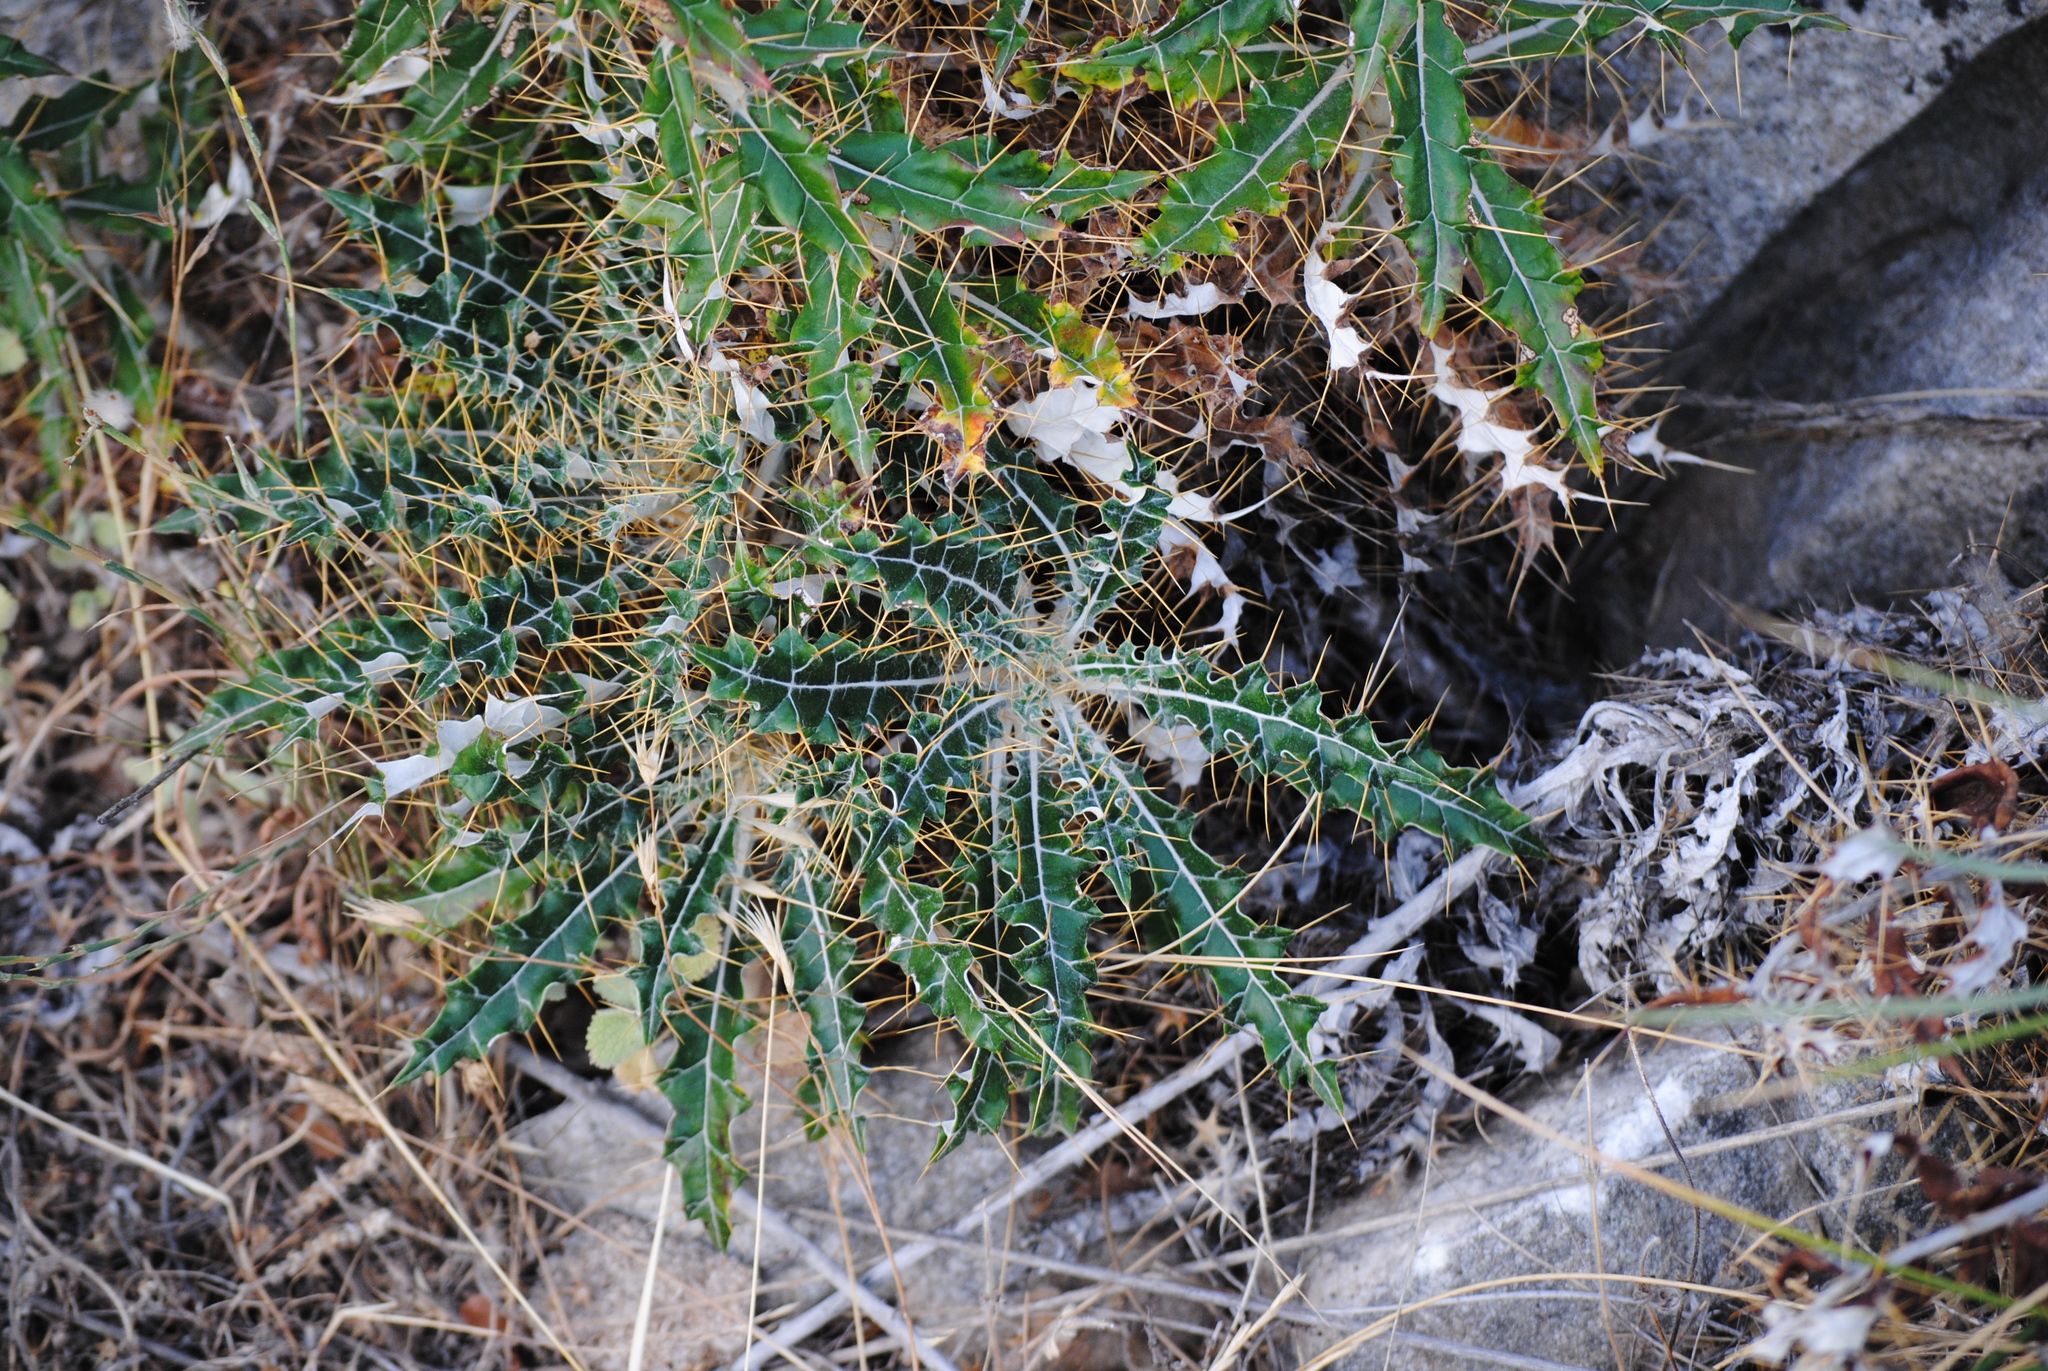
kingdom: Plantae
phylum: Tracheophyta
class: Magnoliopsida
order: Asterales
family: Asteraceae
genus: Ptilostemon
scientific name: Ptilostemon hispanicus
